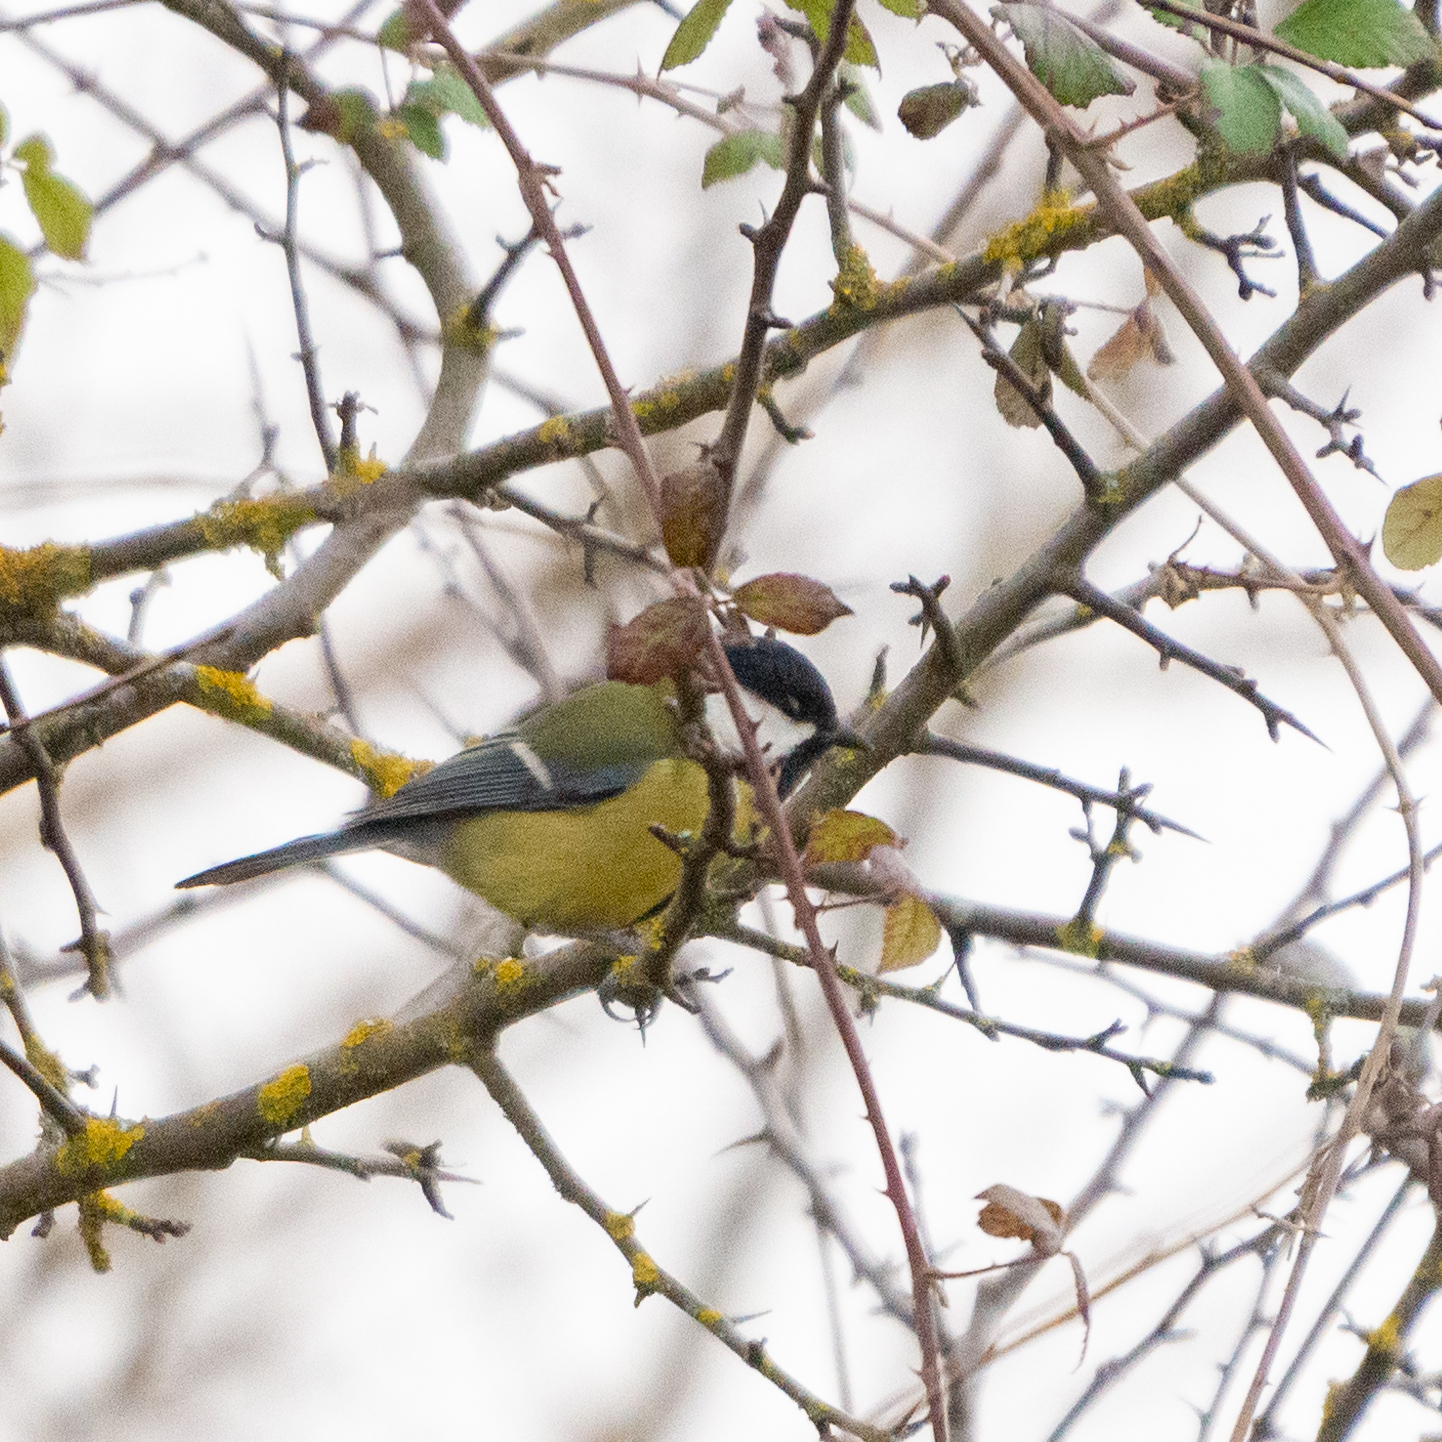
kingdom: Animalia
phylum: Chordata
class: Aves
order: Passeriformes
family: Paridae
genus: Parus
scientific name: Parus major
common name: Great tit
